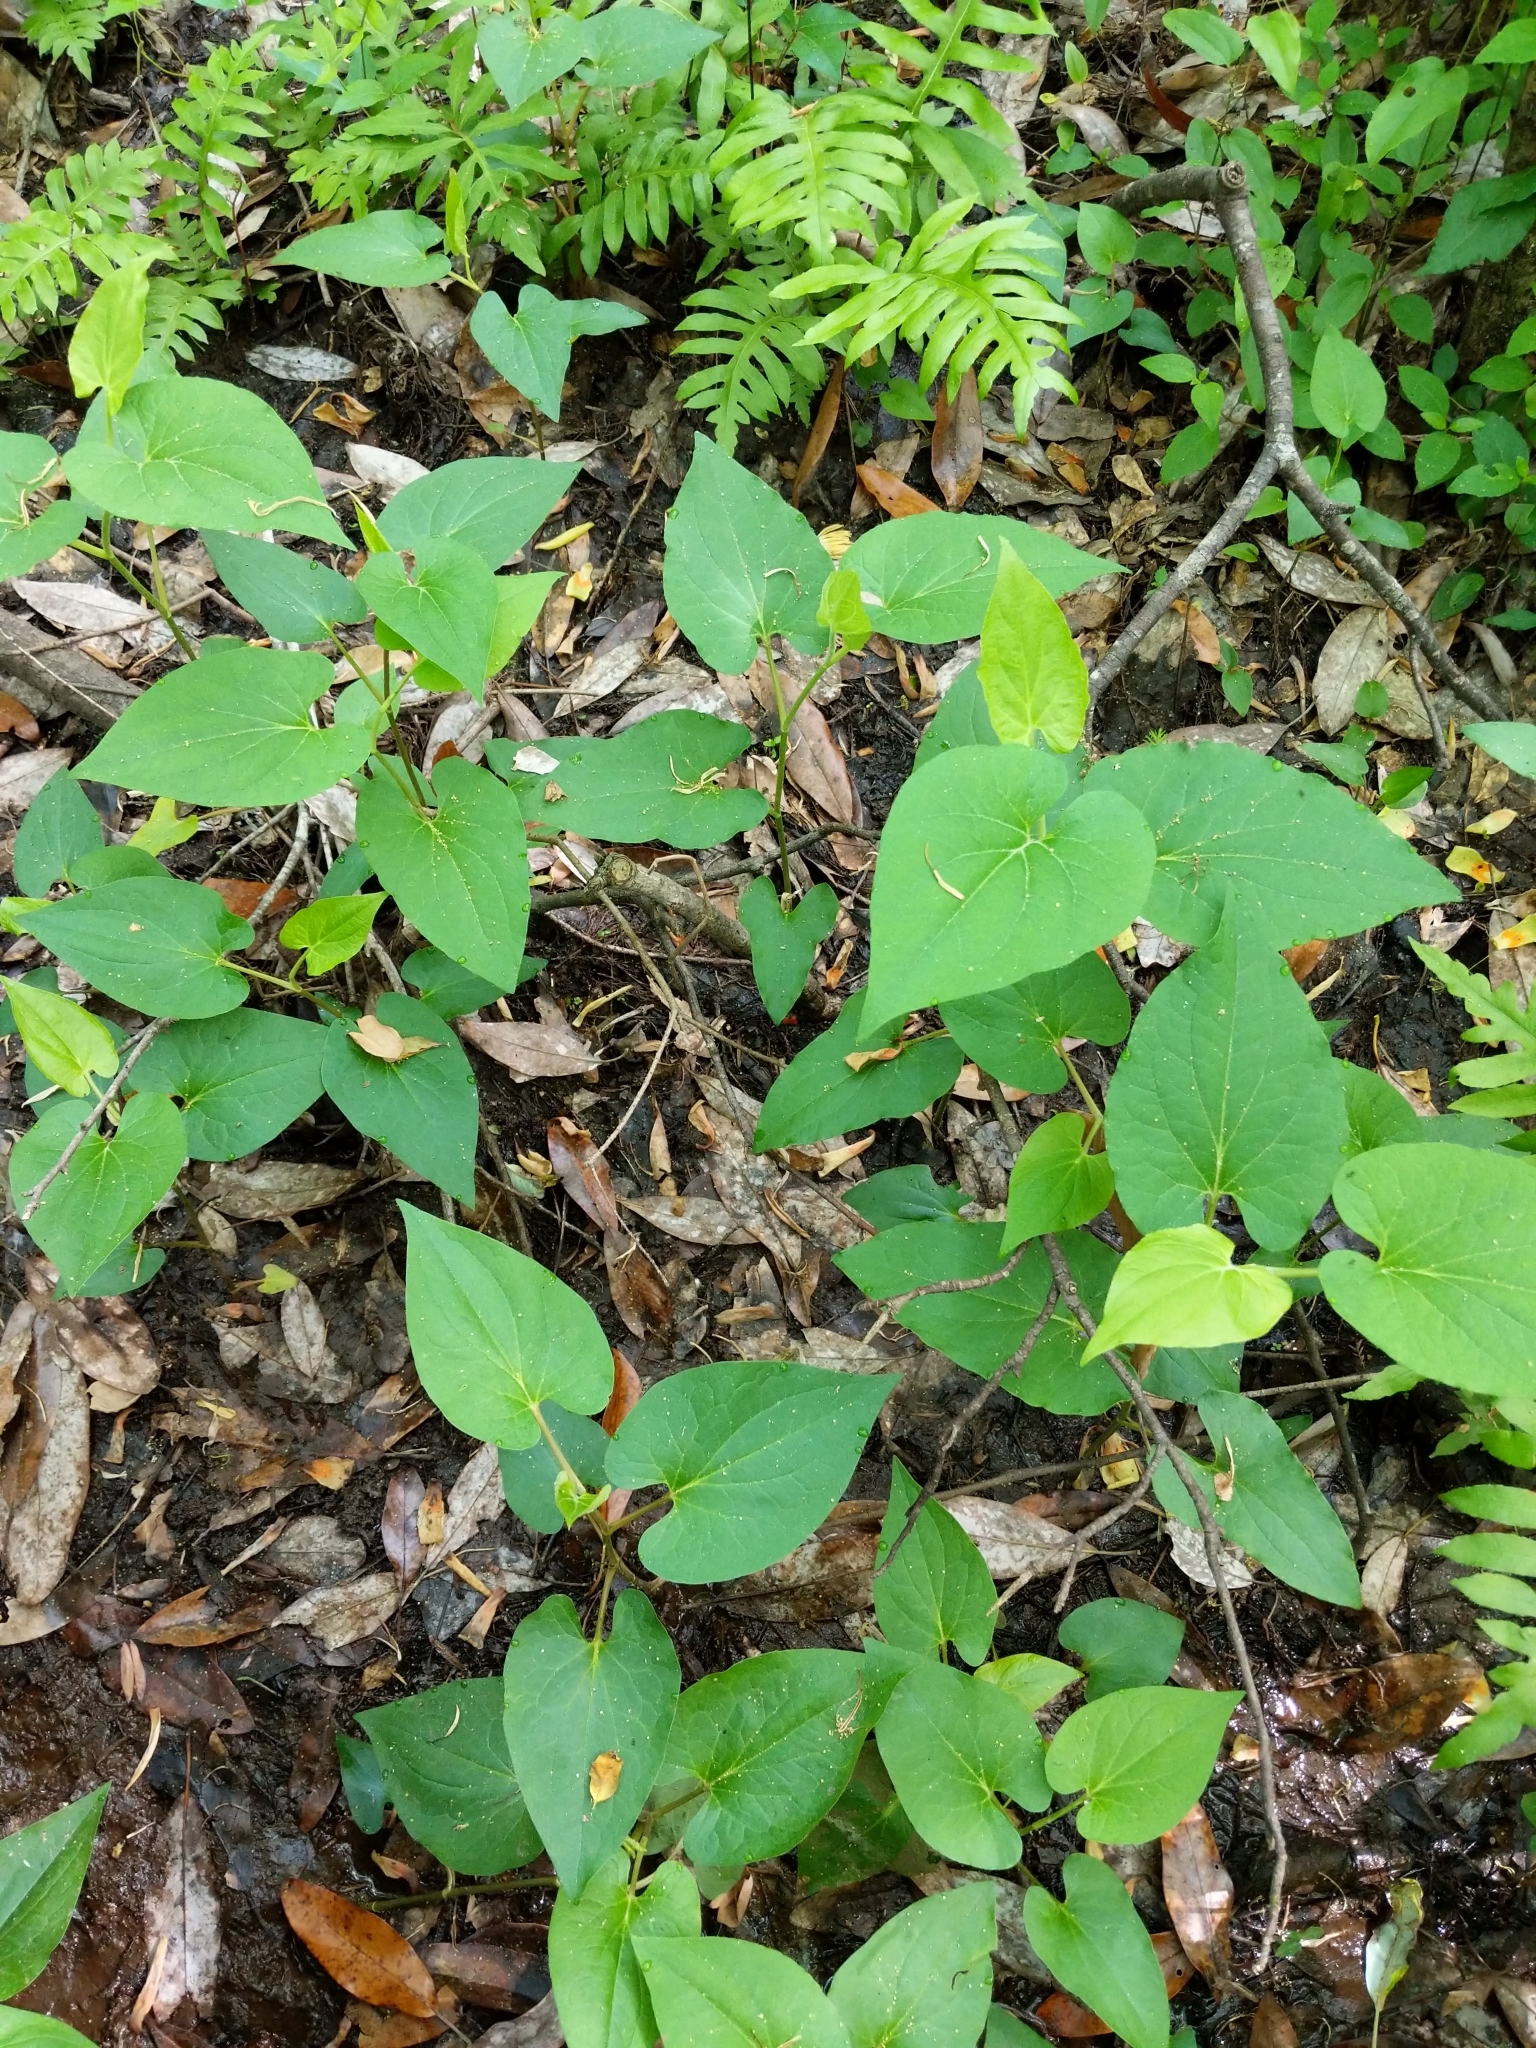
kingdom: Plantae
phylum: Tracheophyta
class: Magnoliopsida
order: Piperales
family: Saururaceae
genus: Saururus
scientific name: Saururus cernuus
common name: Lizard's-tail
